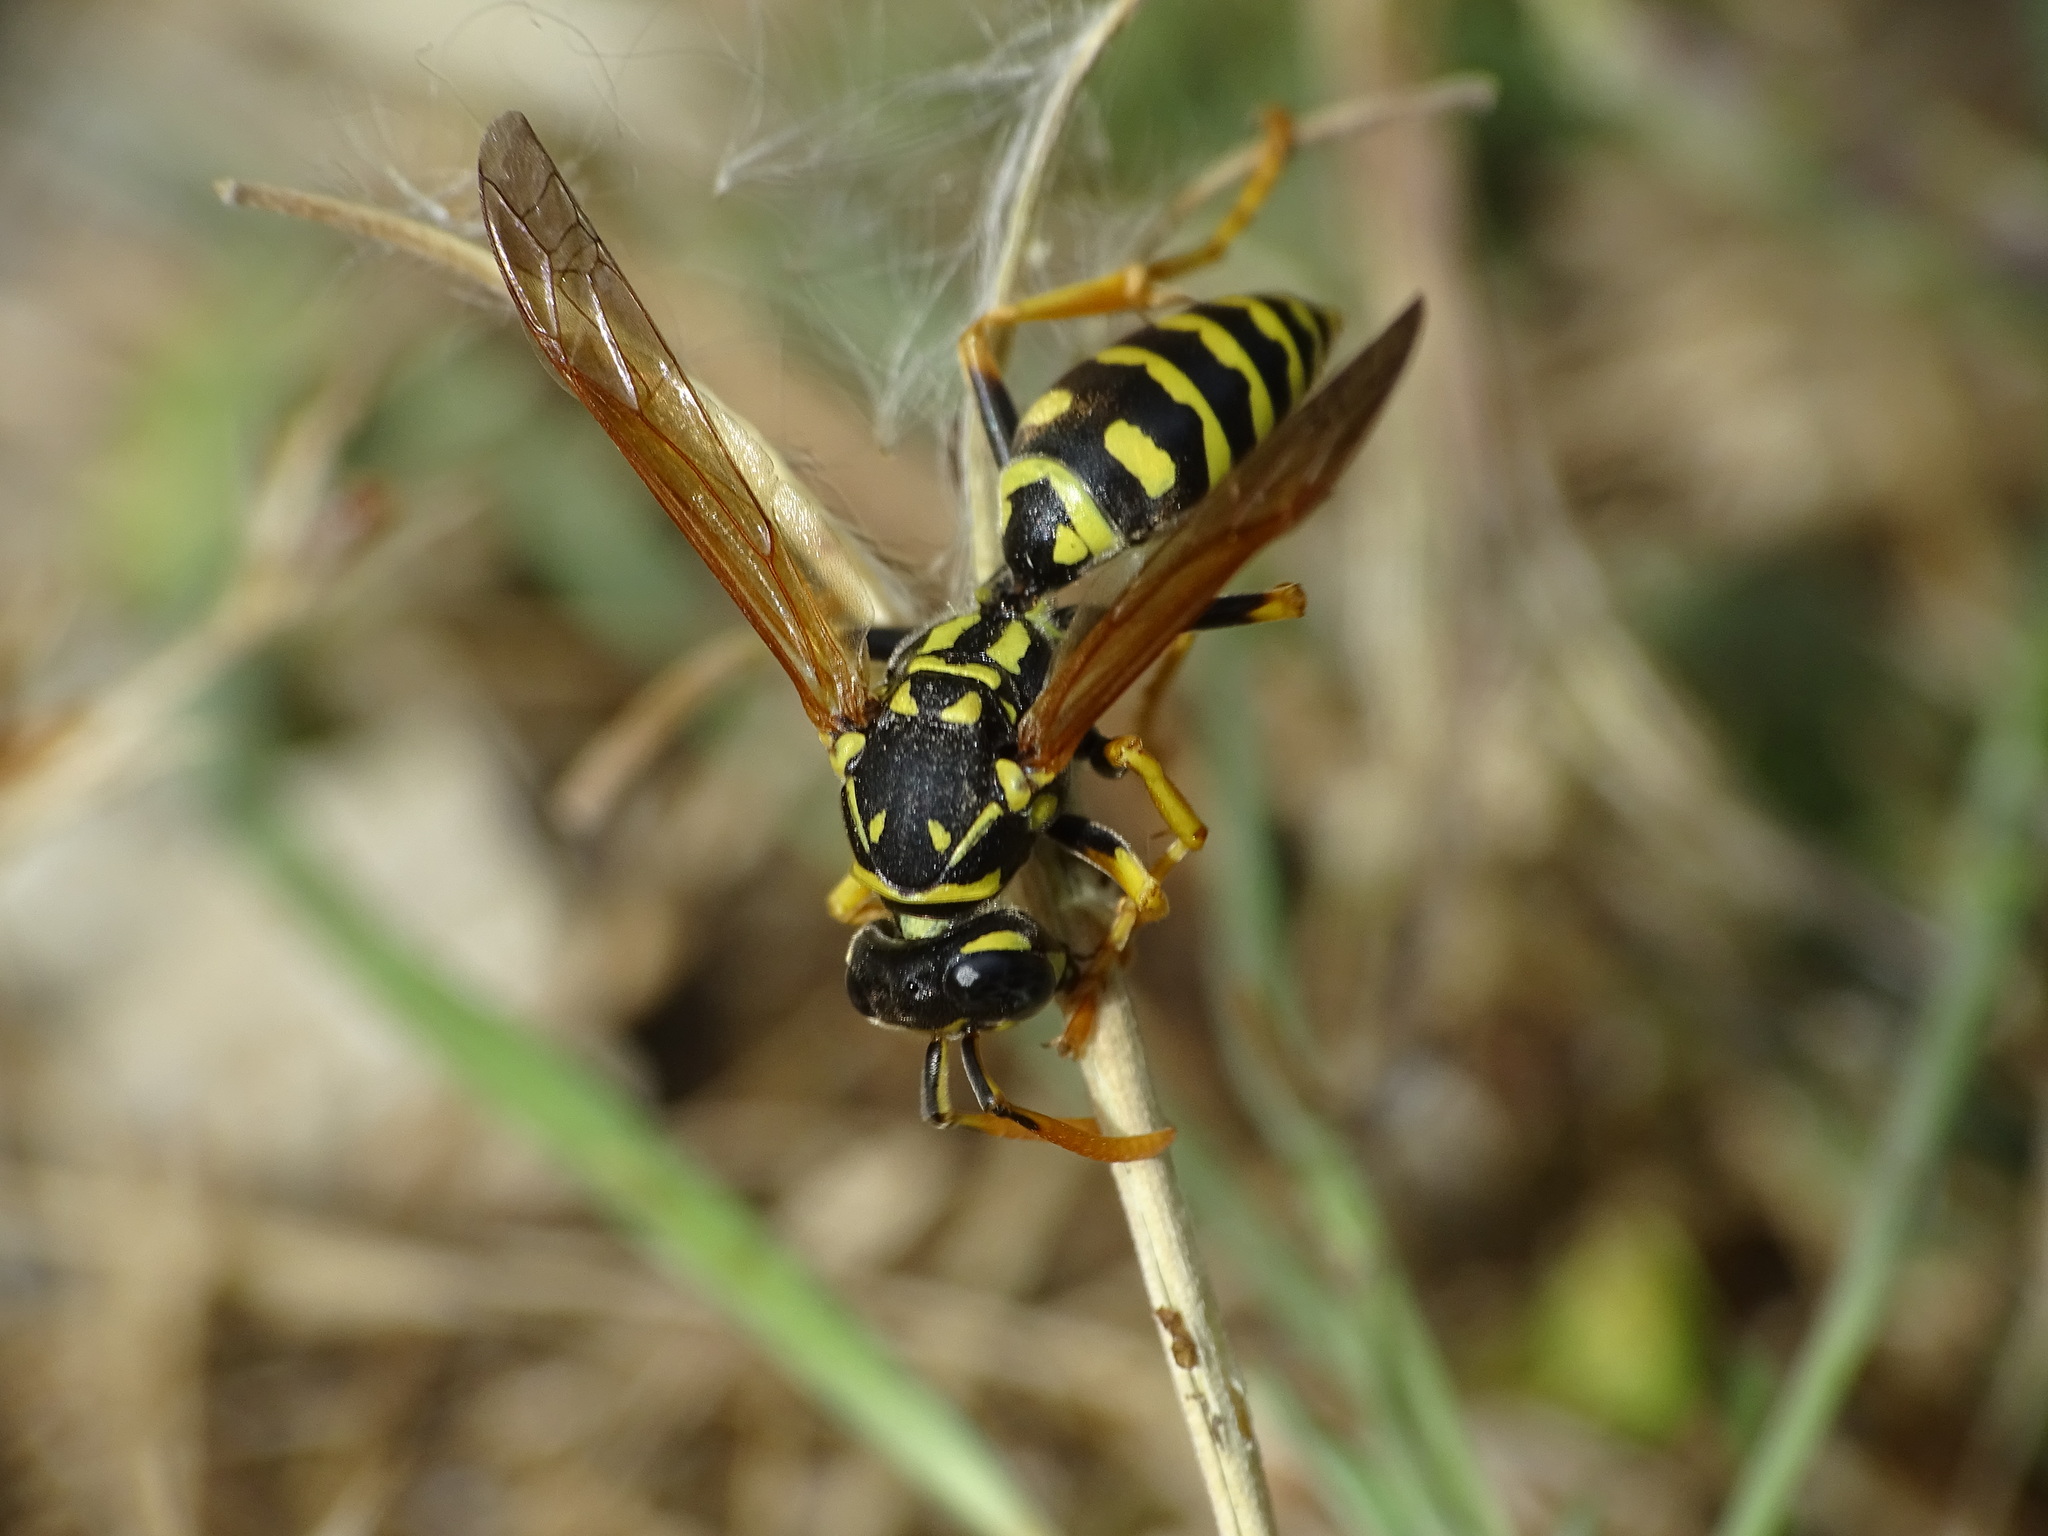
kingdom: Animalia
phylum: Arthropoda
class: Insecta
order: Hymenoptera
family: Eumenidae
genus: Polistes
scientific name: Polistes dominula
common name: Paper wasp
